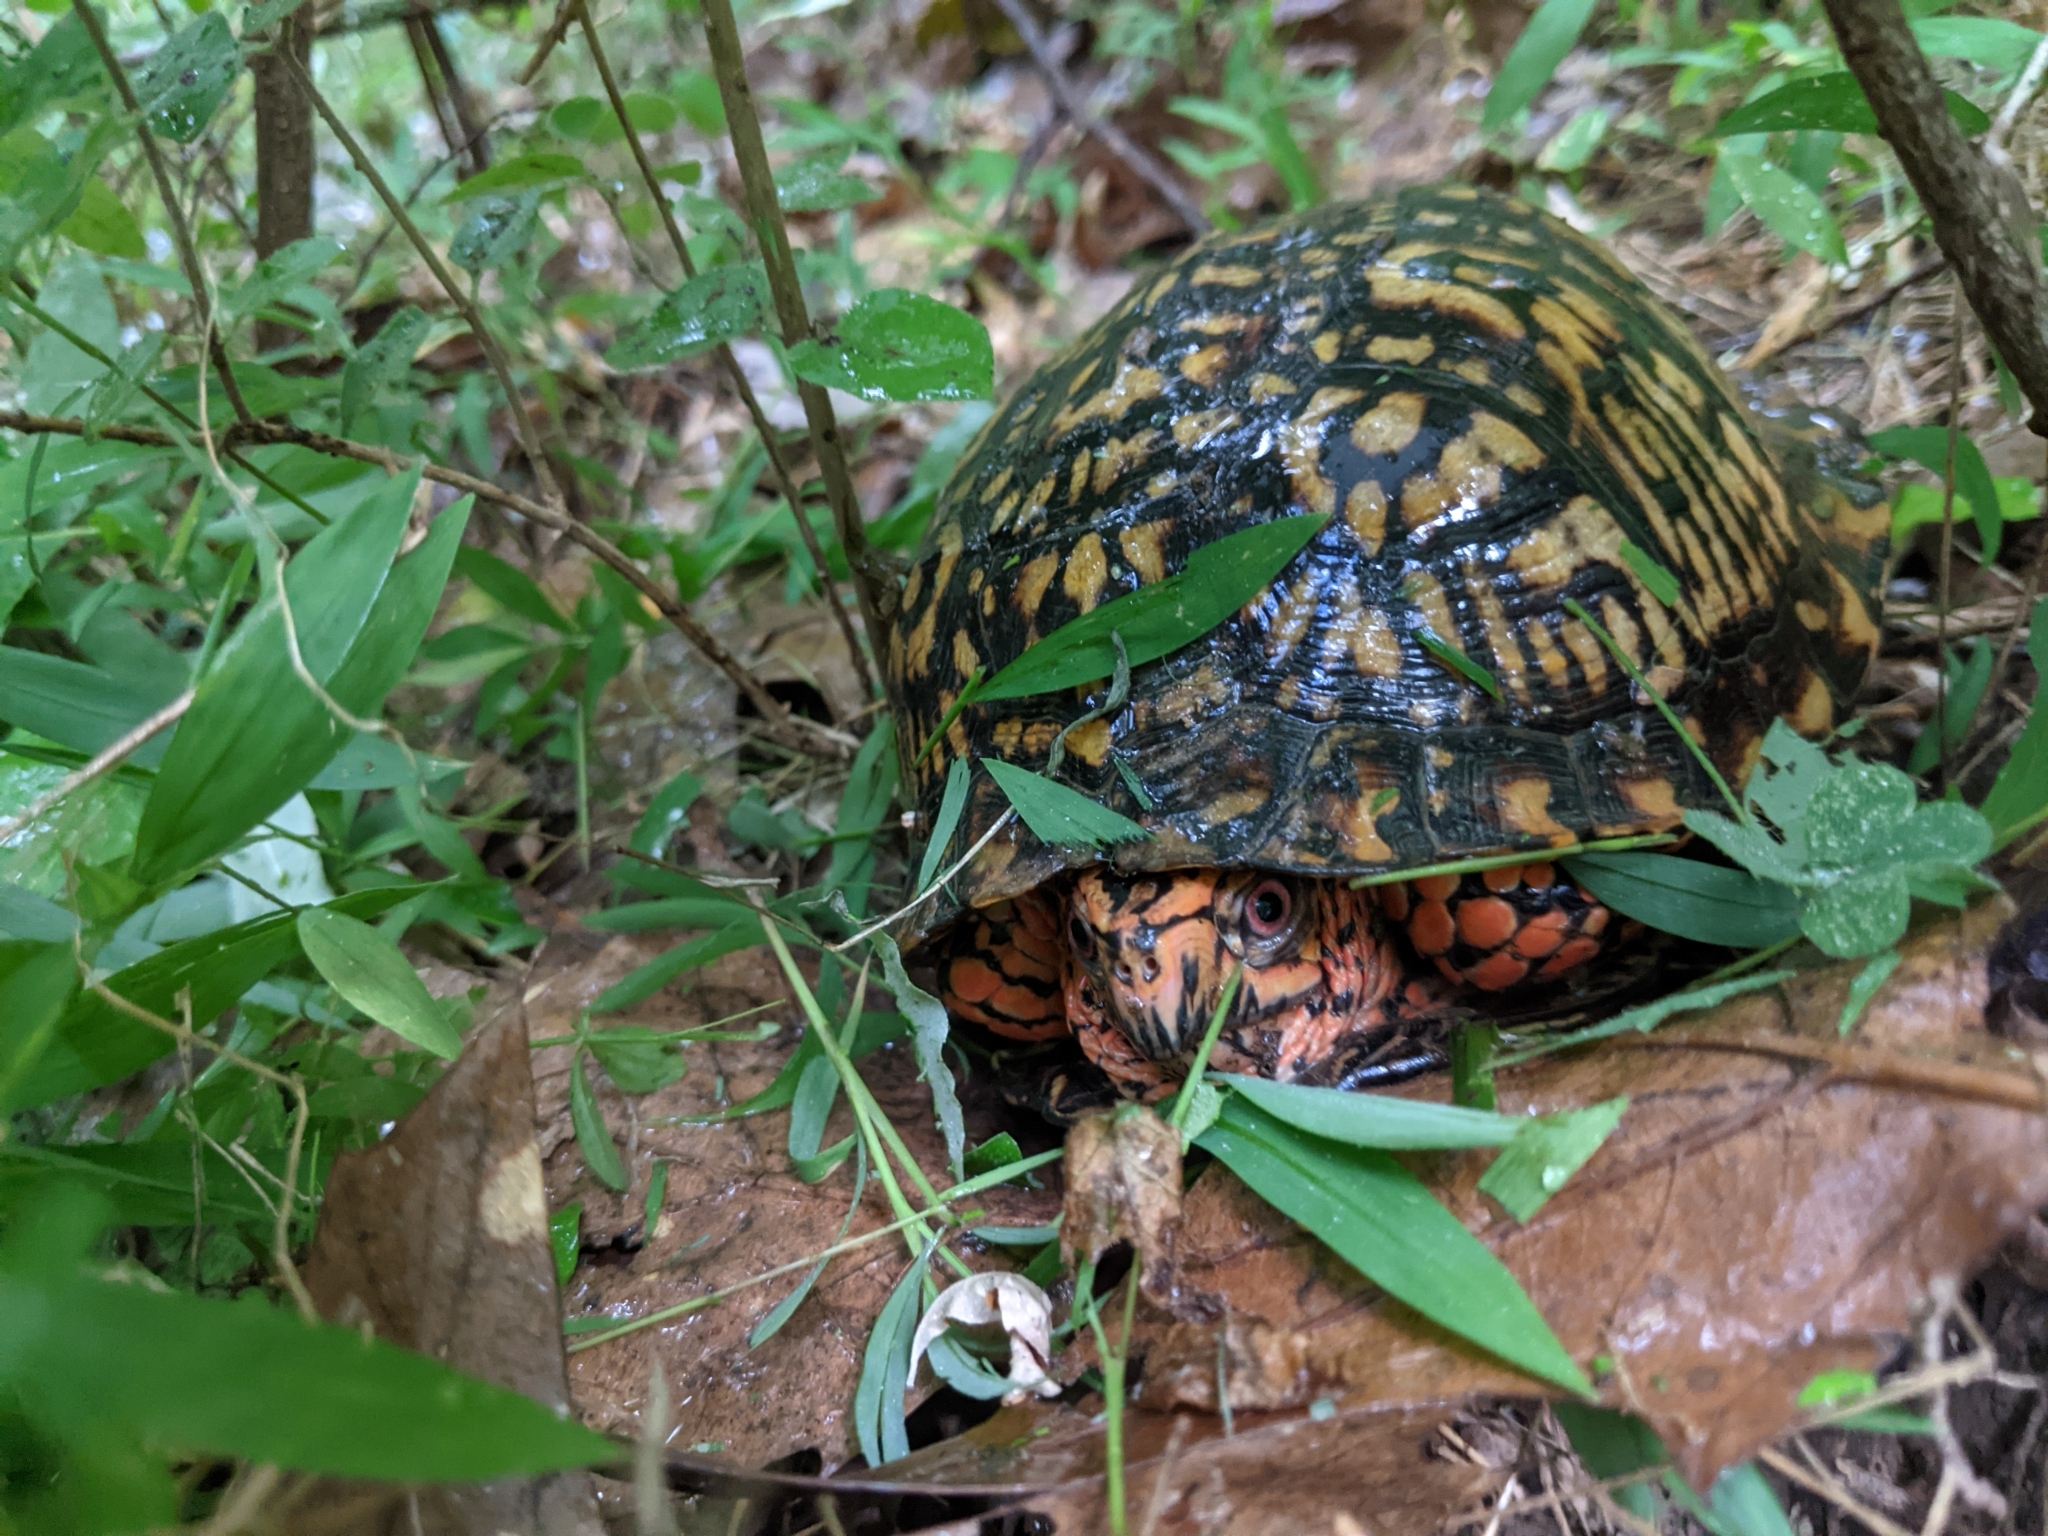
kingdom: Animalia
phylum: Chordata
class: Testudines
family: Emydidae
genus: Terrapene
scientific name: Terrapene carolina
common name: Common box turtle
